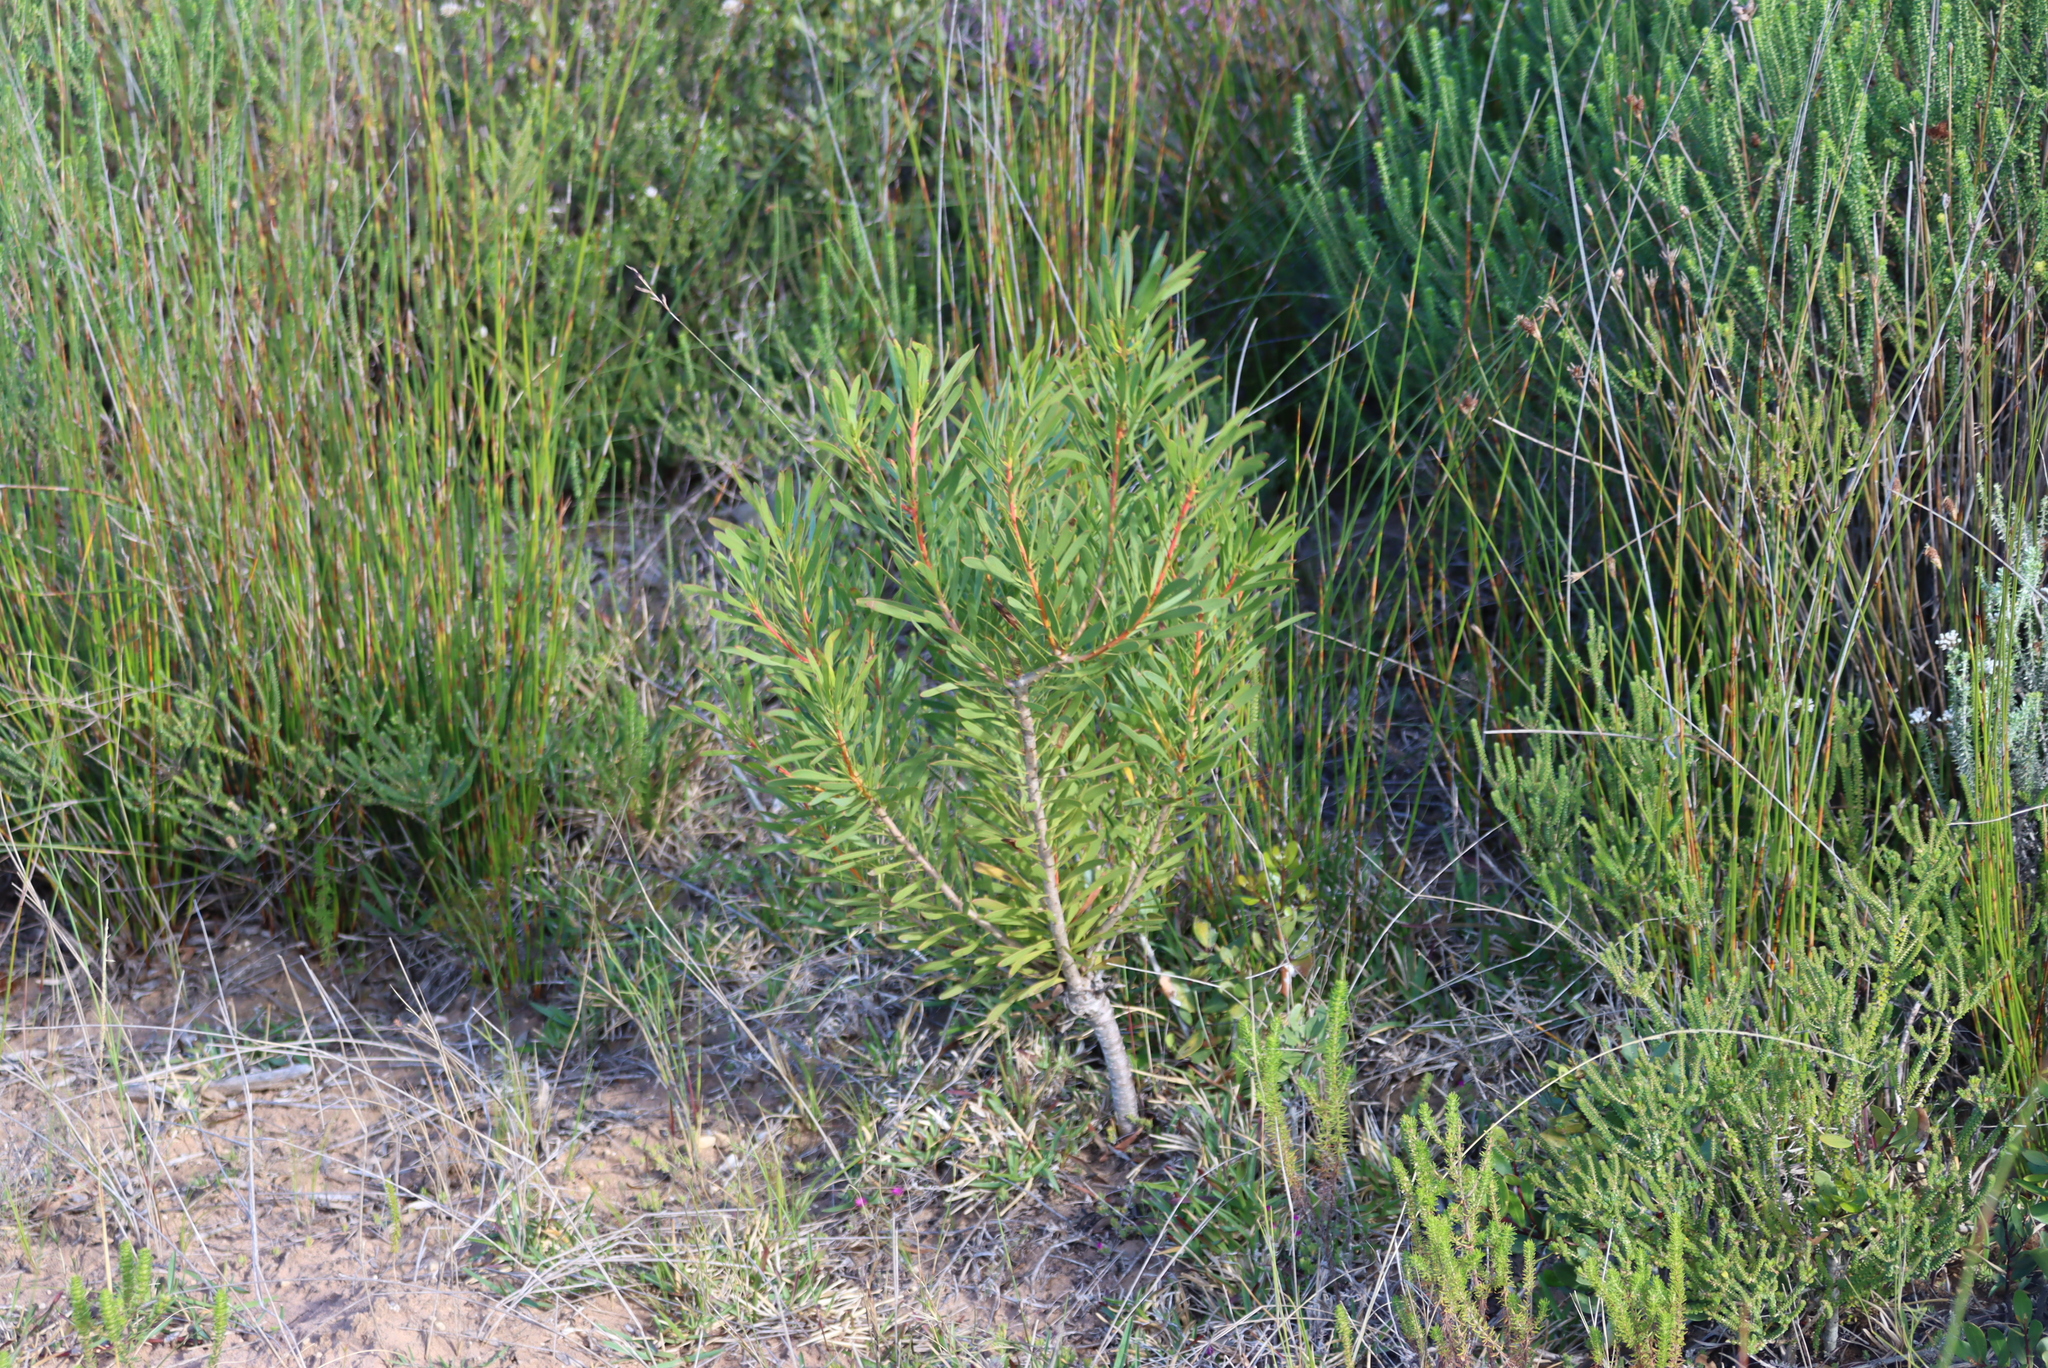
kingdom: Plantae
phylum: Tracheophyta
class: Magnoliopsida
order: Proteales
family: Proteaceae
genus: Protea
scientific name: Protea repens
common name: Sugarbush
